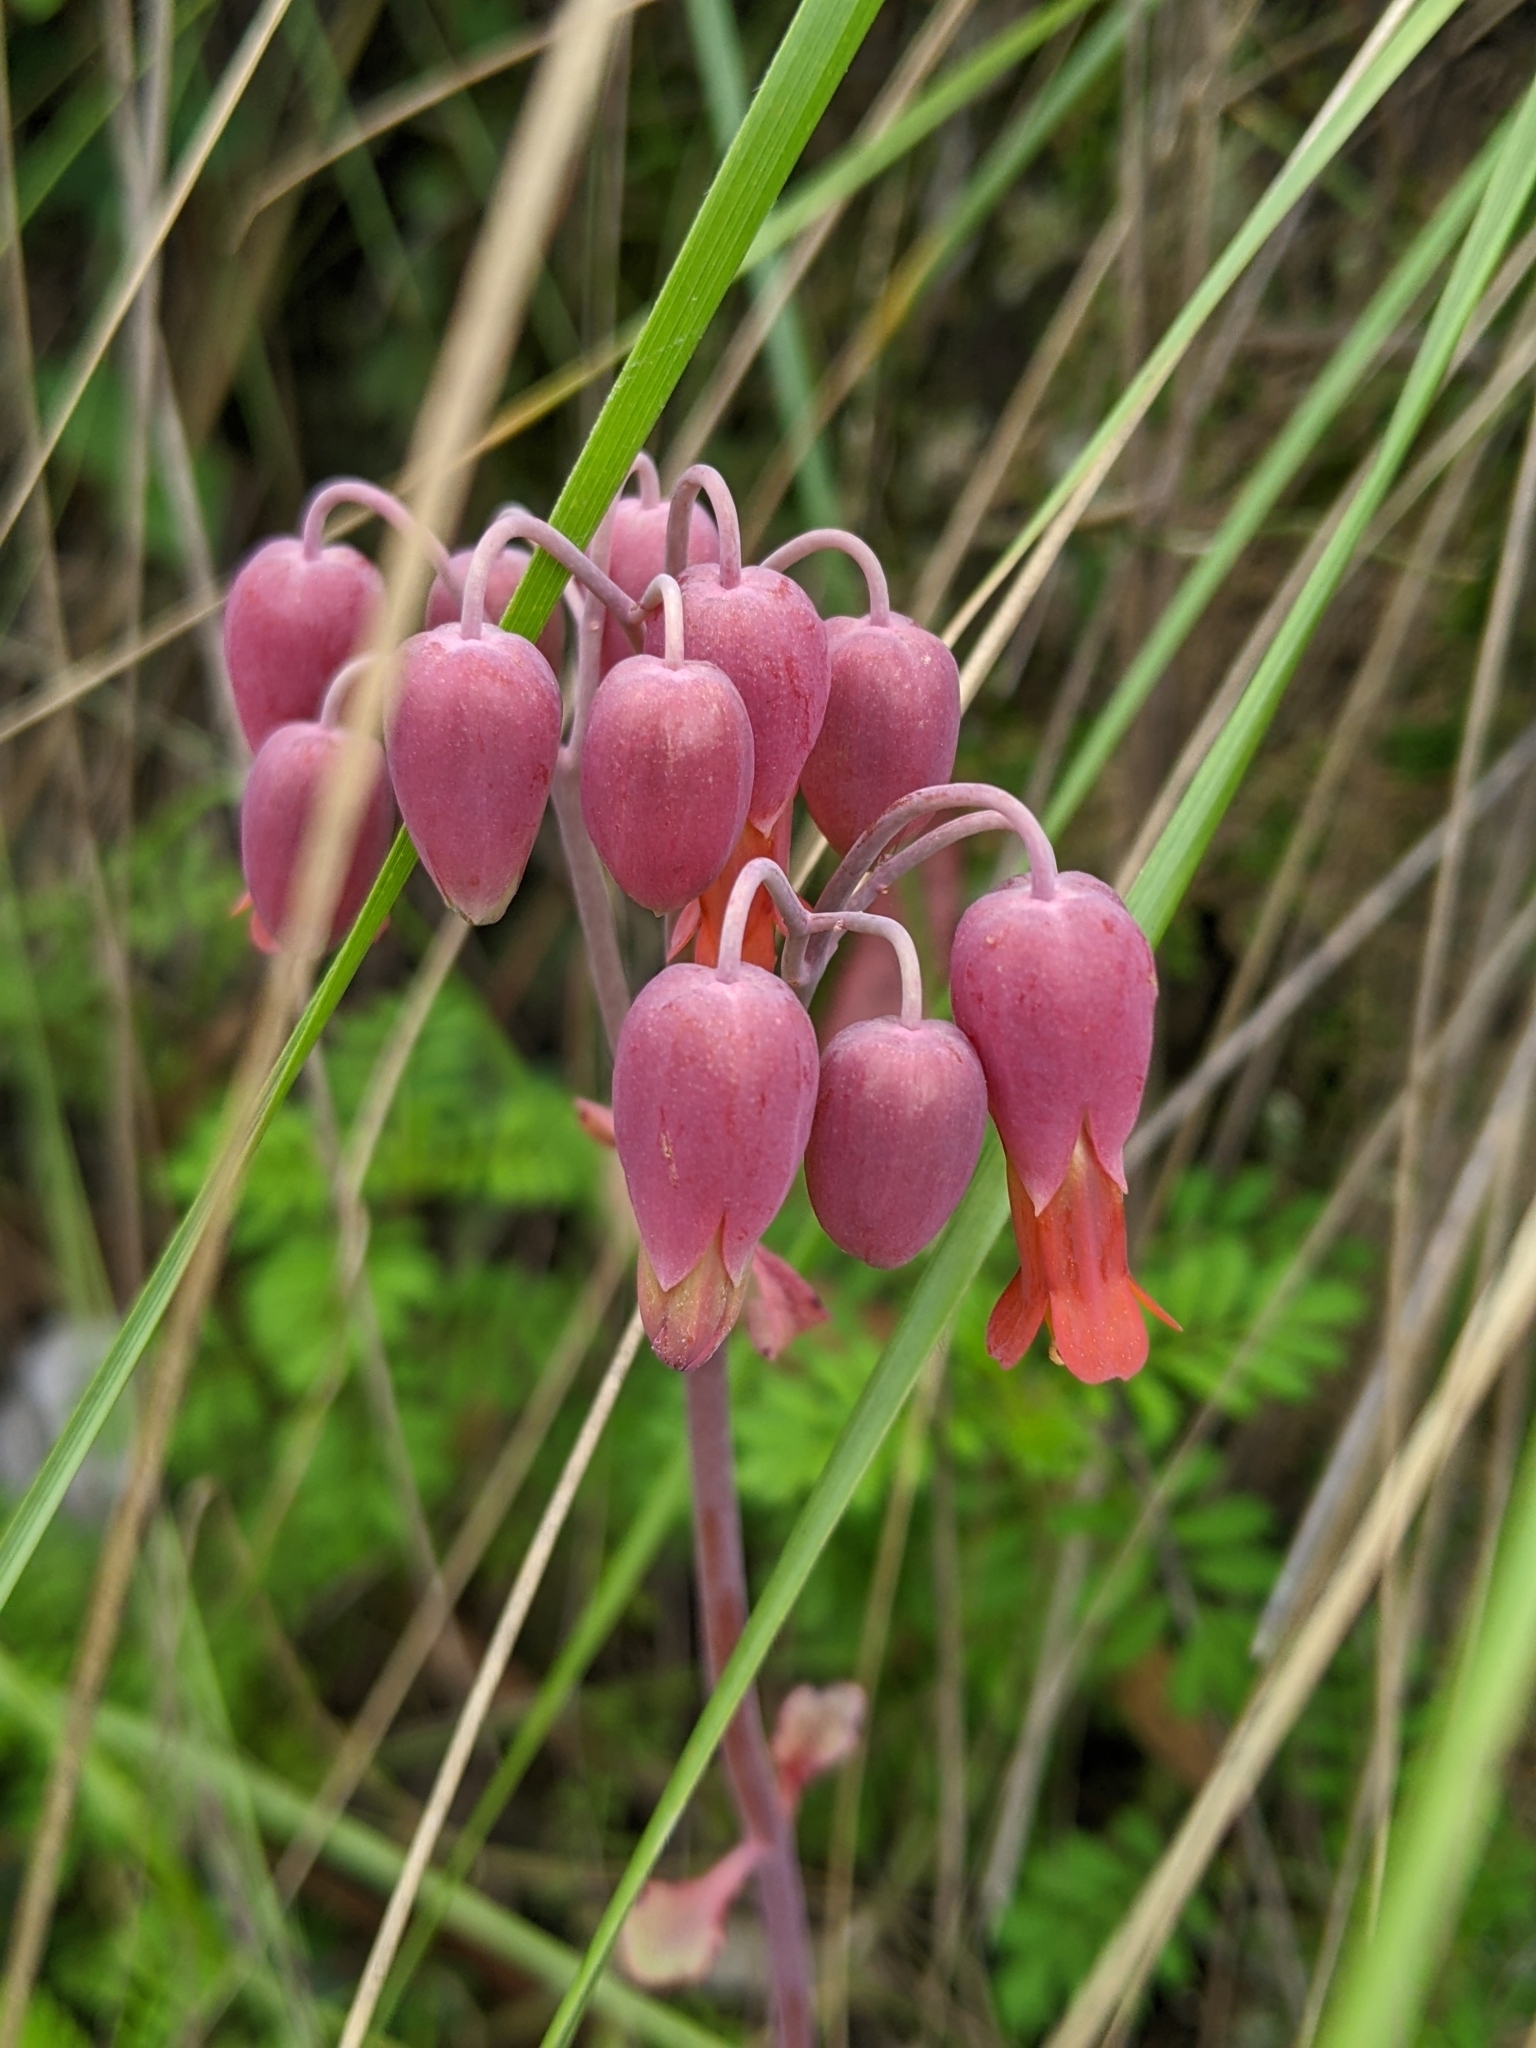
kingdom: Plantae
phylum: Tracheophyta
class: Magnoliopsida
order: Saxifragales
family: Crassulaceae
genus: Kalanchoe
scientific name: Kalanchoe laxiflora
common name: Milky widow's thrill
